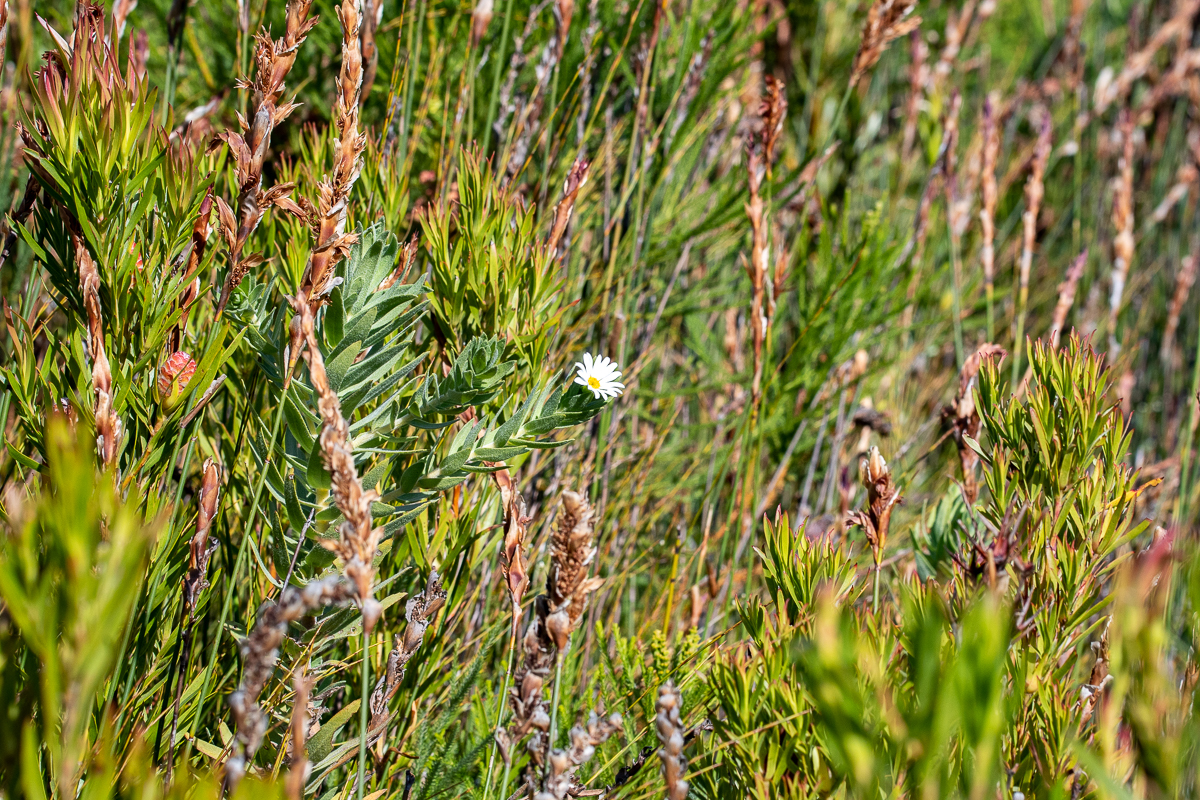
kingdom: Plantae
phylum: Tracheophyta
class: Magnoliopsida
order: Asterales
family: Asteraceae
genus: Osmitopsis
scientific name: Osmitopsis asteriscoides
